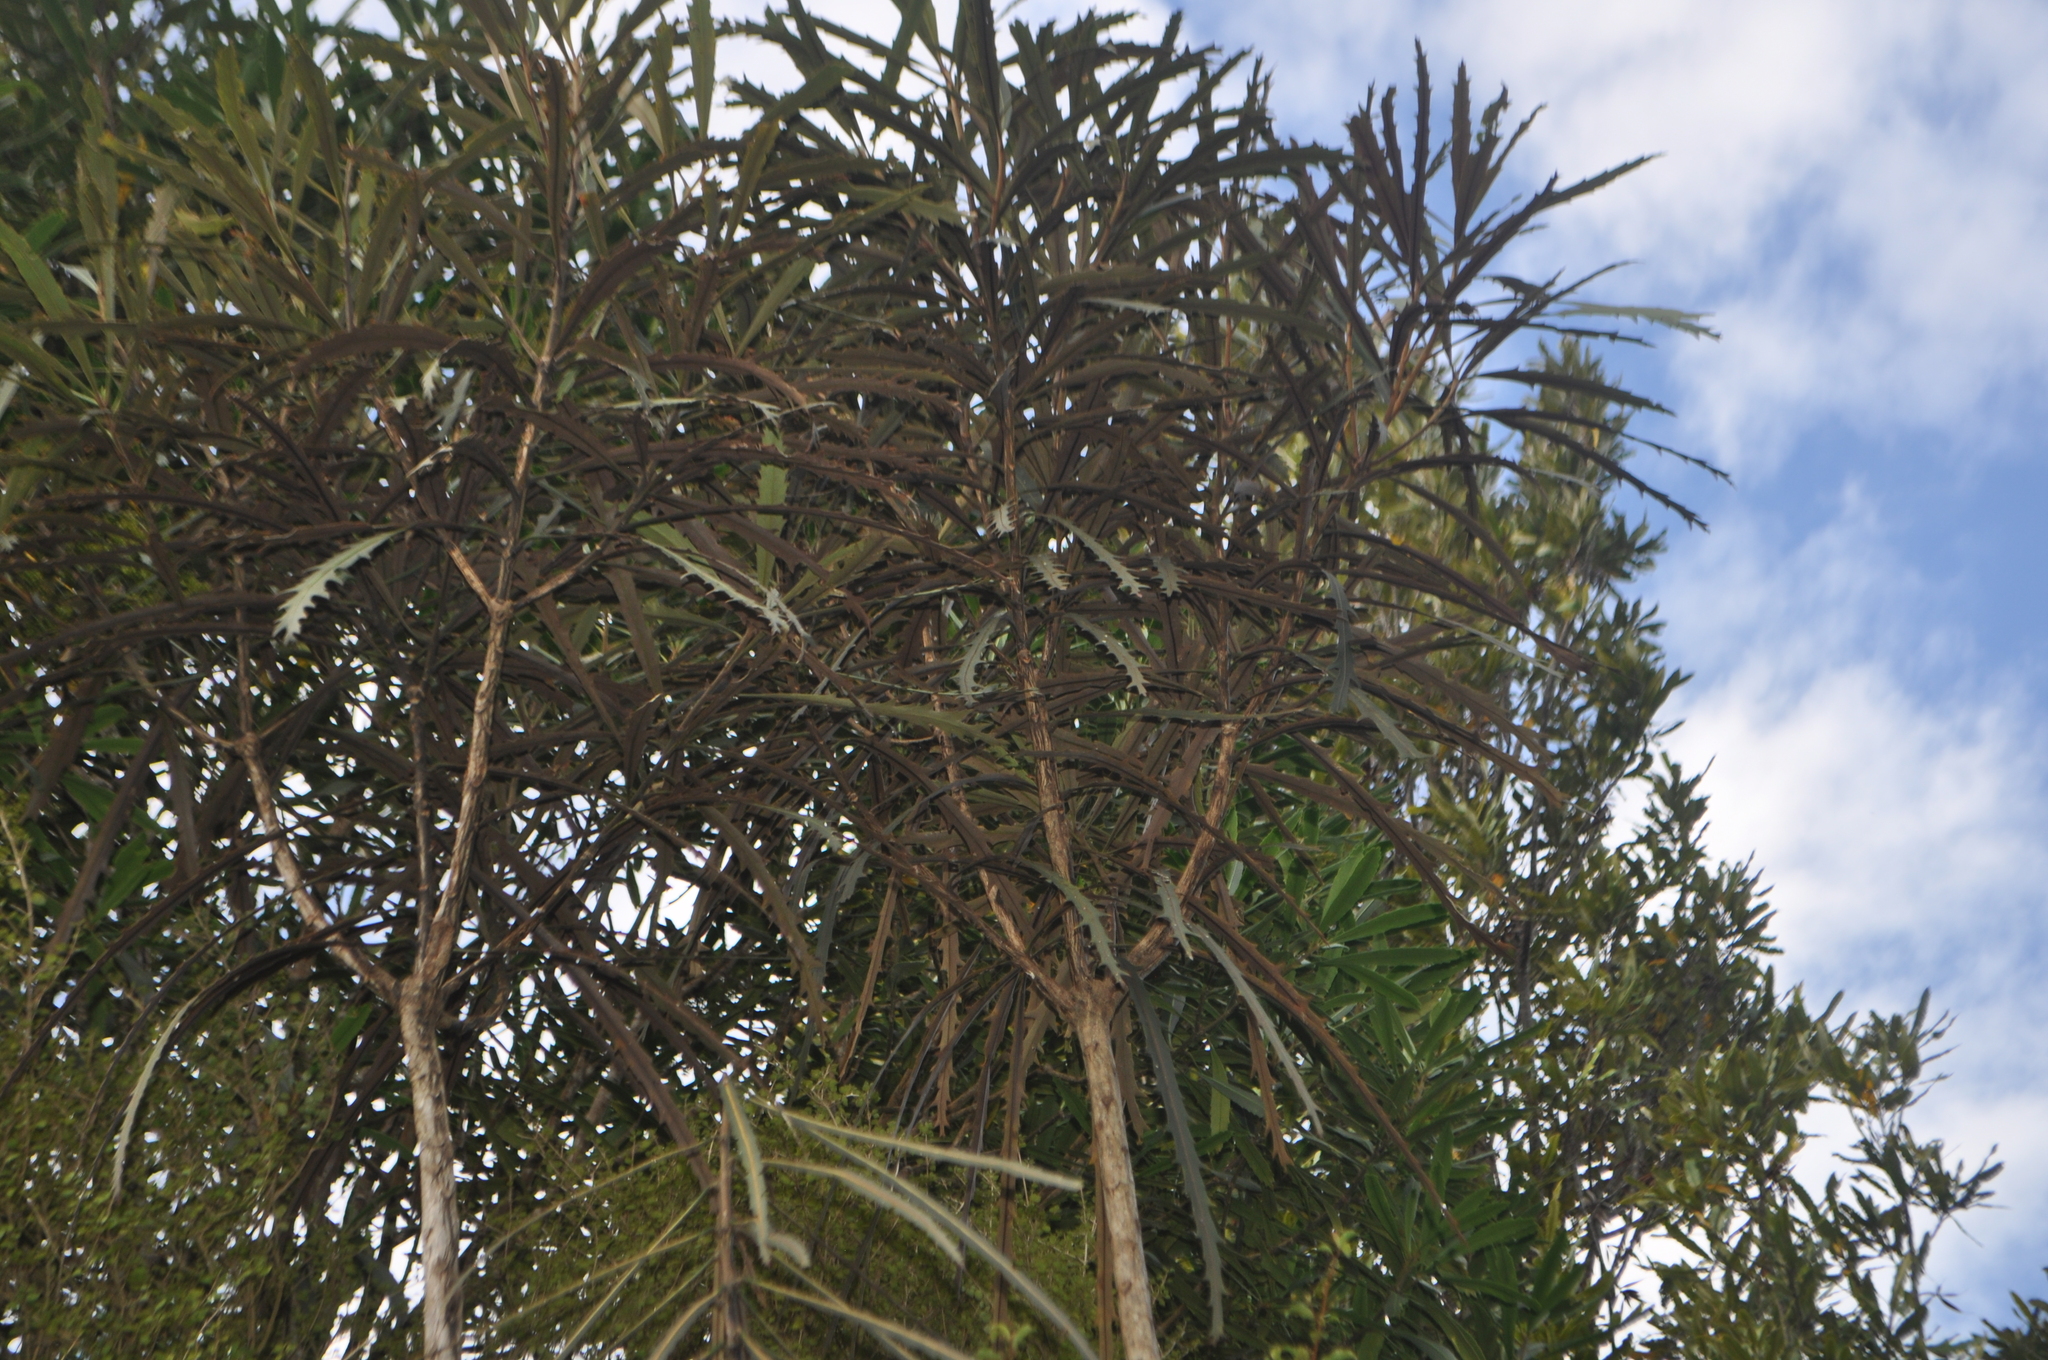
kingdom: Plantae
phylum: Tracheophyta
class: Magnoliopsida
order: Apiales
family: Araliaceae
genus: Pseudopanax
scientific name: Pseudopanax crassifolius
